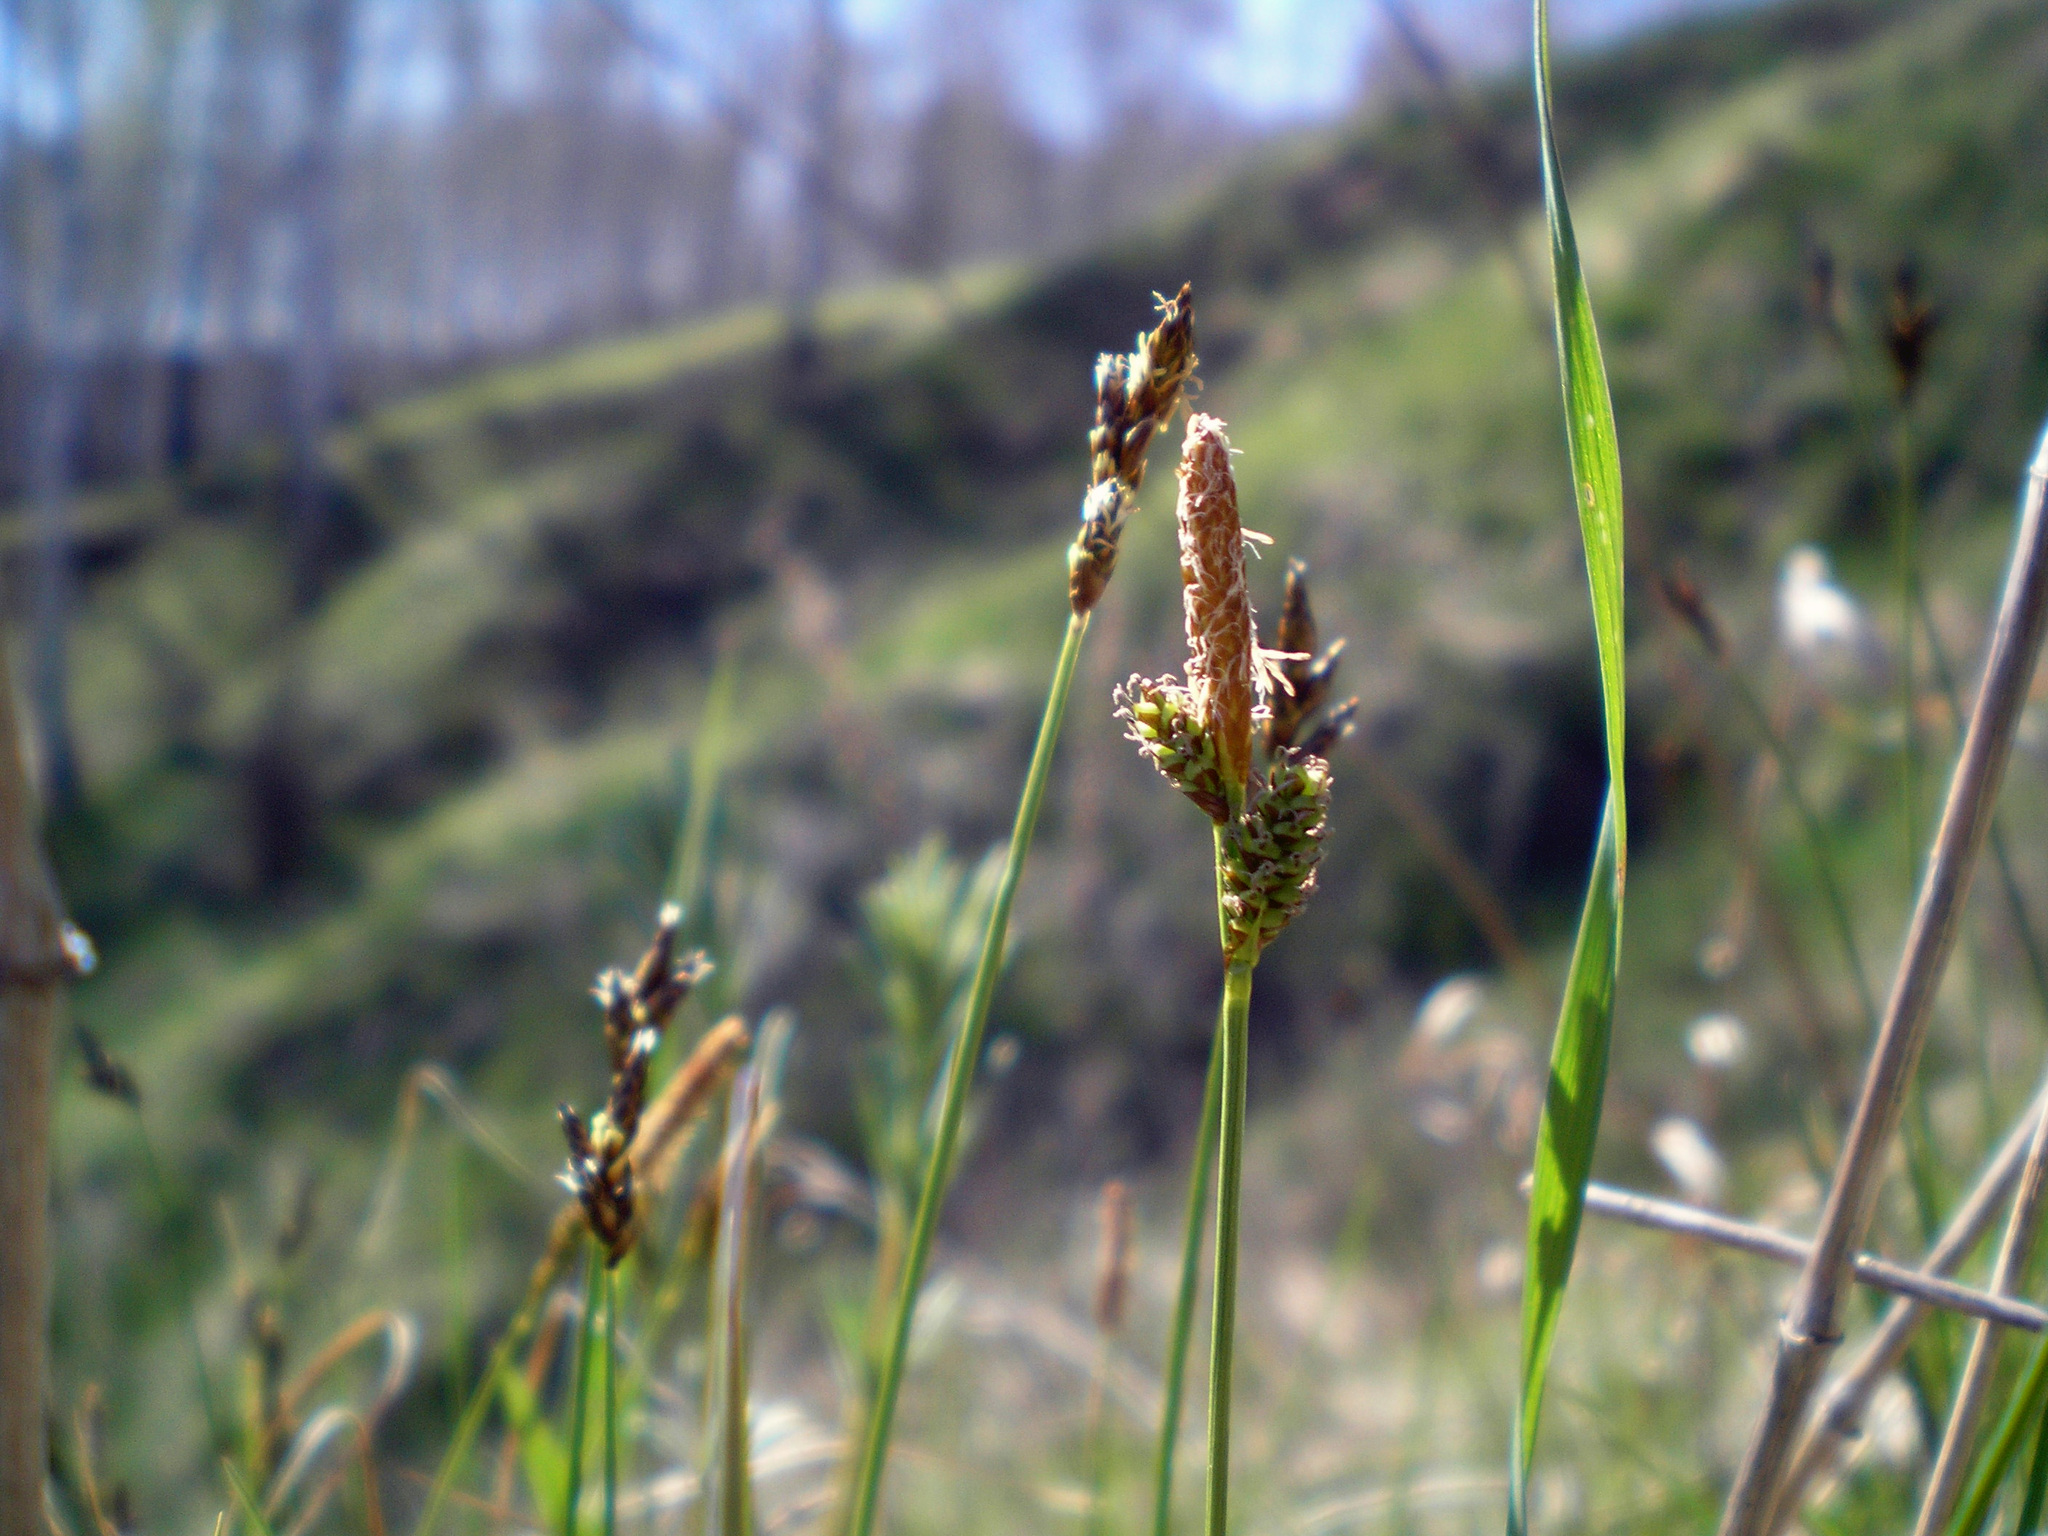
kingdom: Plantae
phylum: Tracheophyta
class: Liliopsida
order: Poales
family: Cyperaceae
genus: Carex
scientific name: Carex cespitosa
